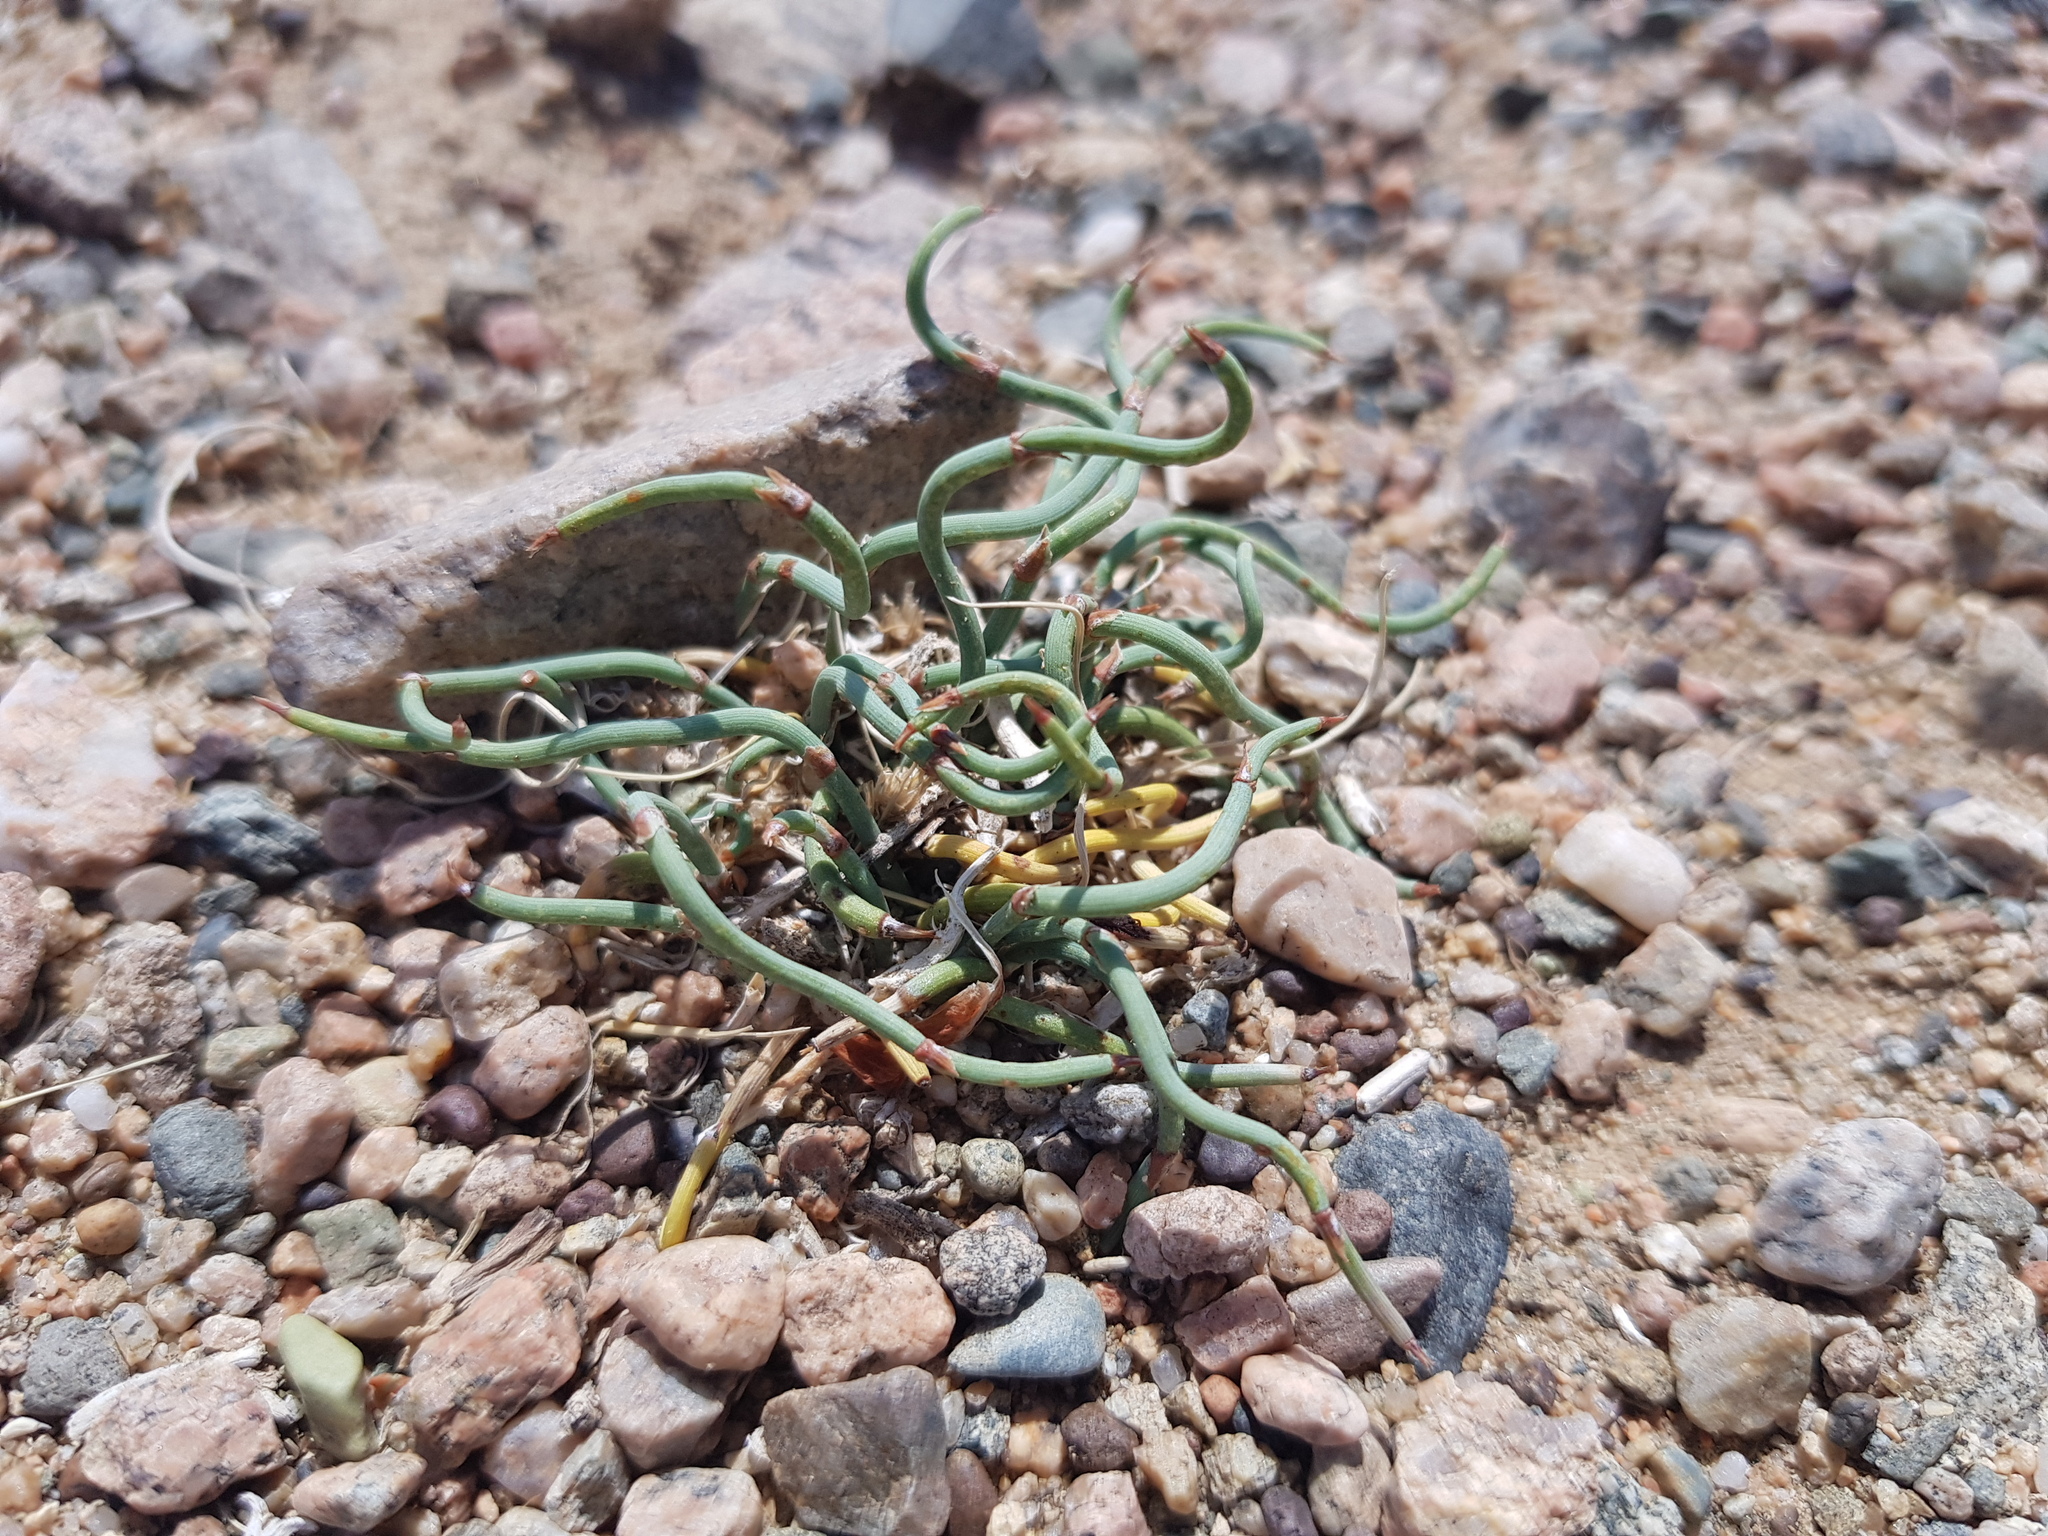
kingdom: Plantae
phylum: Tracheophyta
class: Gnetopsida
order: Ephedrales
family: Ephedraceae
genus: Ephedra
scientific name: Ephedra sinica
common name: Chinese ephedra
